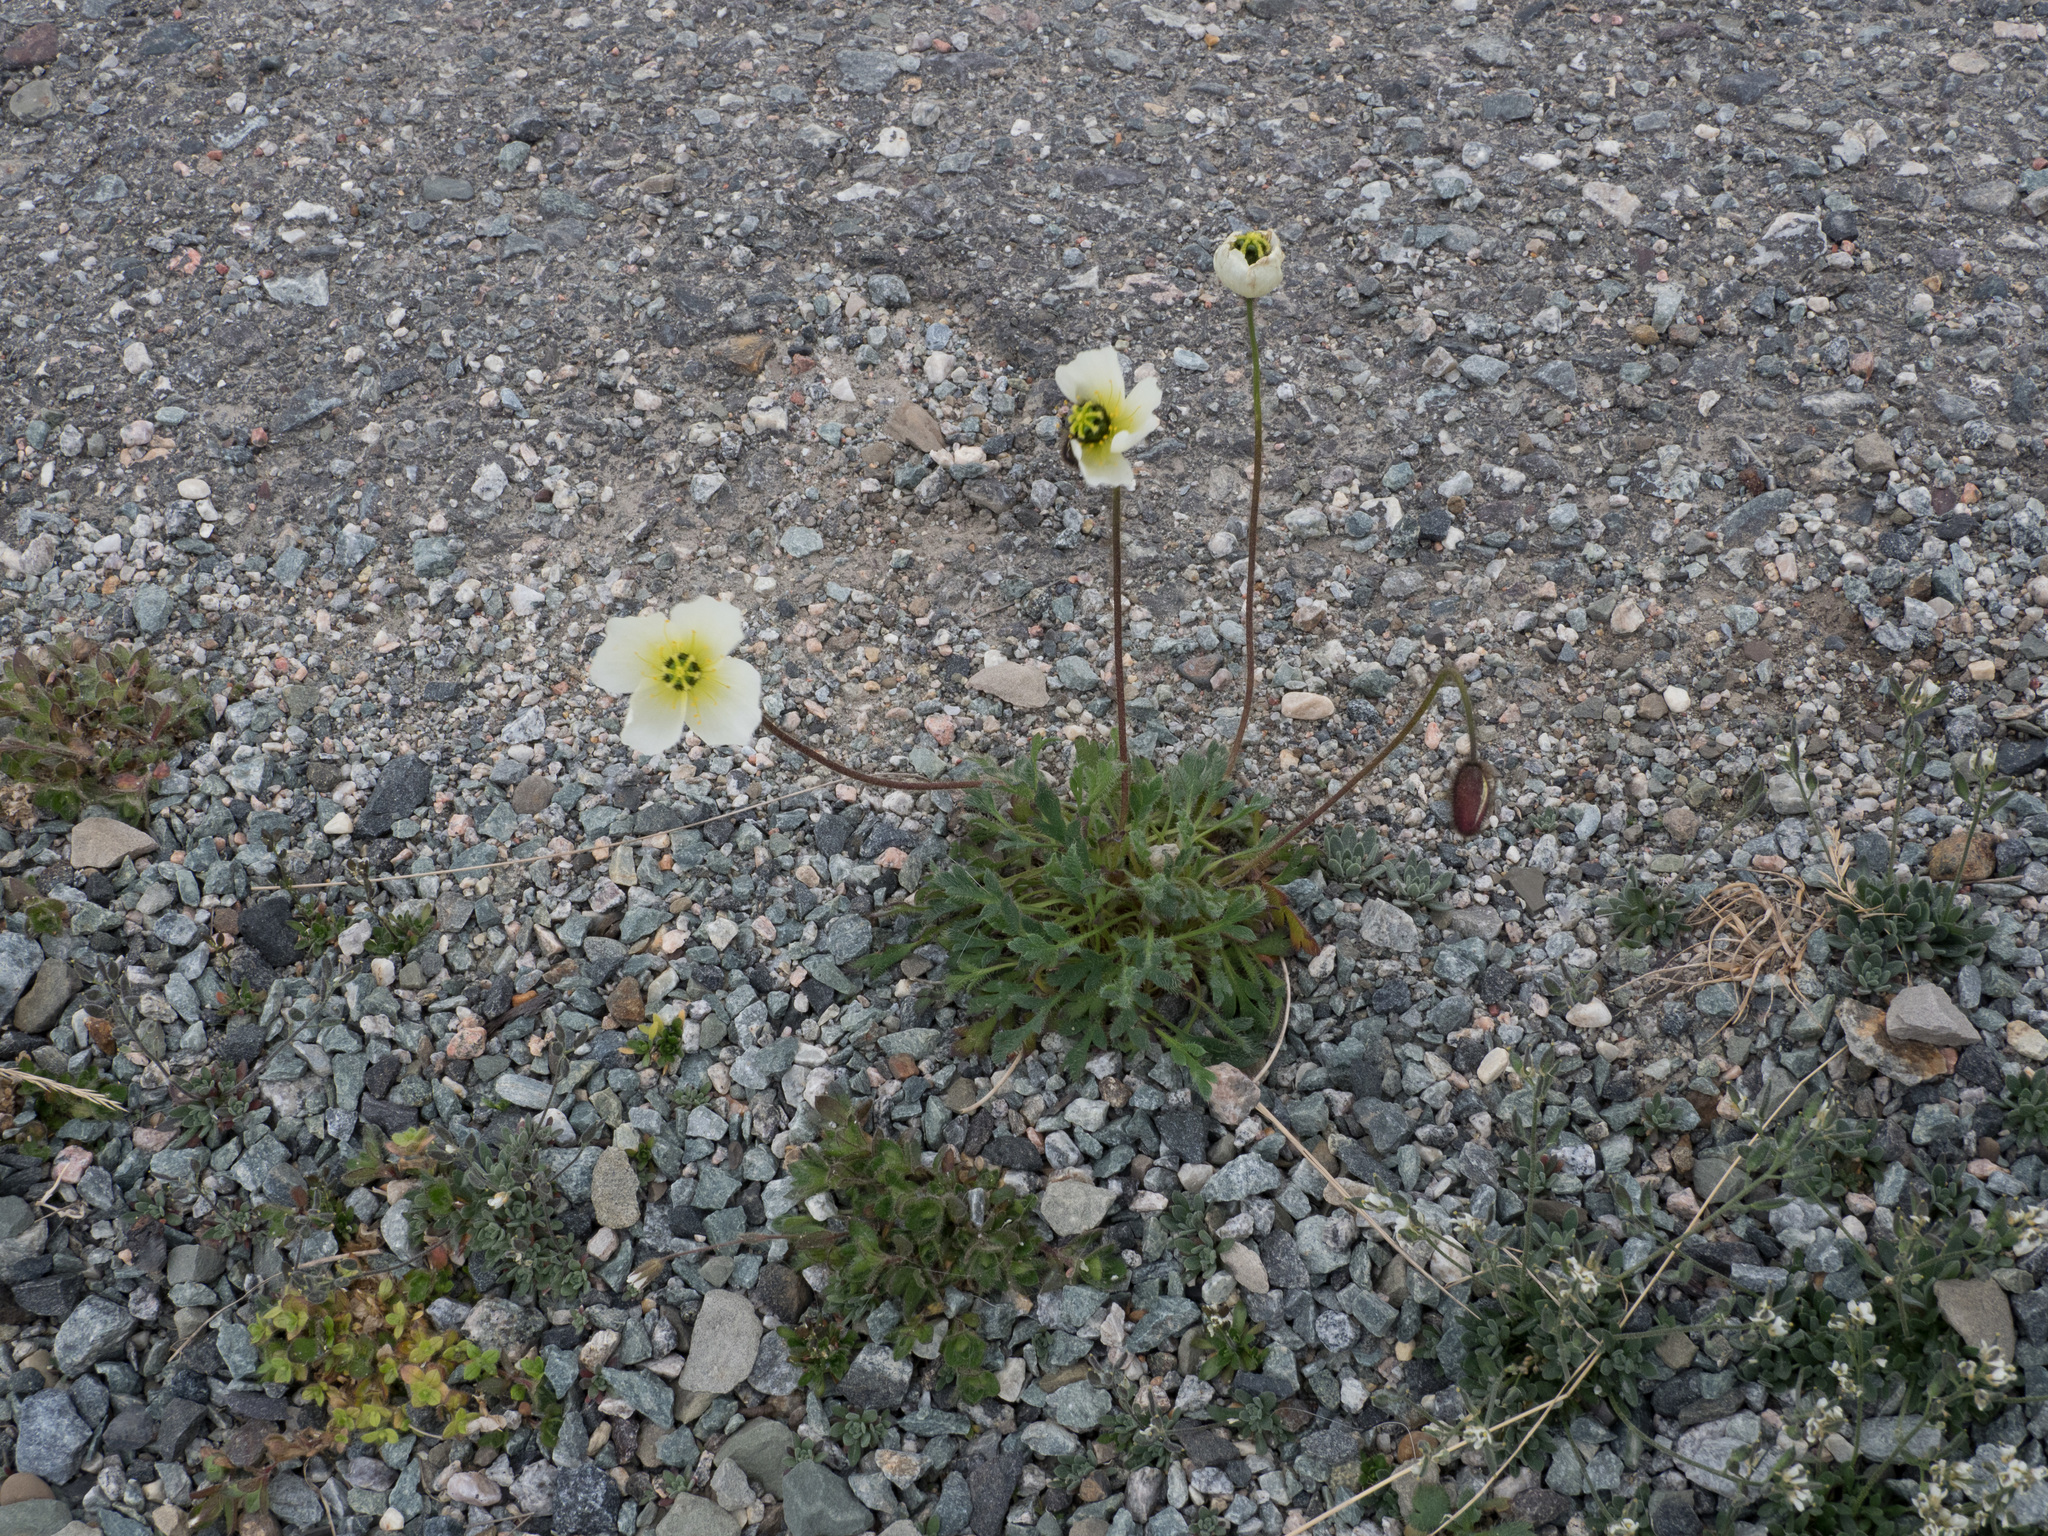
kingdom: Plantae
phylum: Tracheophyta
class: Magnoliopsida
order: Ranunculales
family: Papaveraceae
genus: Papaver
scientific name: Papaver radicatum
